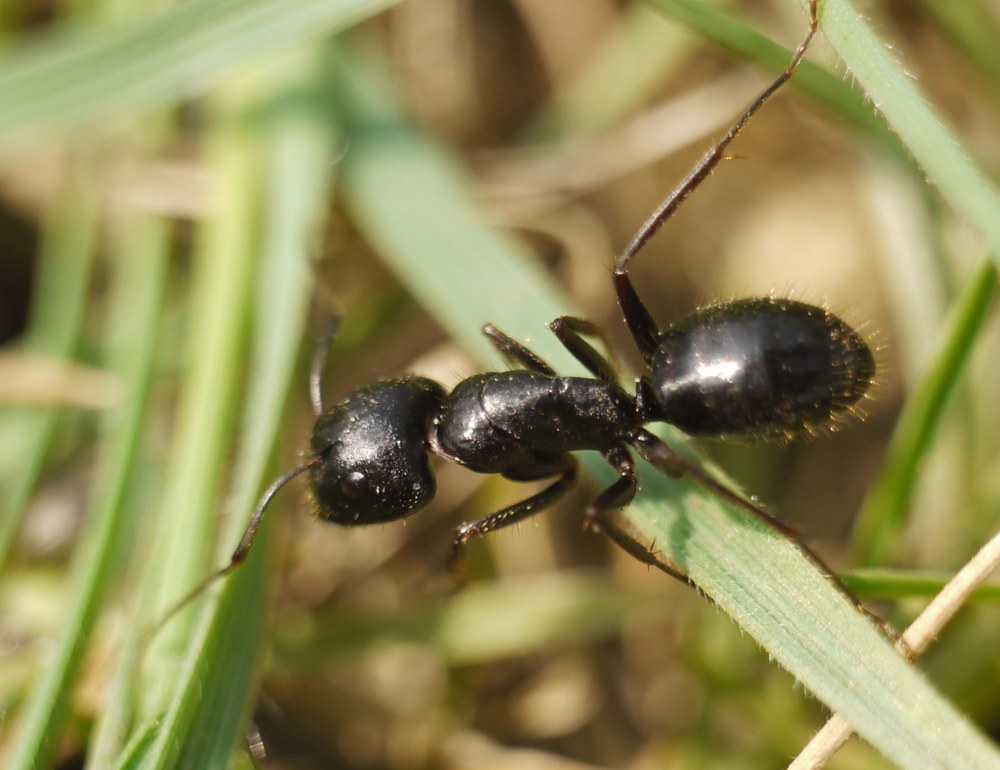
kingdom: Animalia
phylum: Arthropoda
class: Insecta
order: Hymenoptera
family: Formicidae
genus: Camponotus
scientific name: Camponotus aethiops
